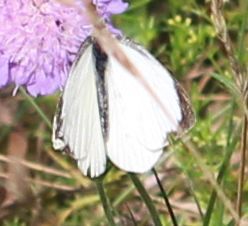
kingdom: Animalia
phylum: Arthropoda
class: Insecta
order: Lepidoptera
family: Pieridae
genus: Pieris
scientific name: Pieris brassicae
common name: Large white
